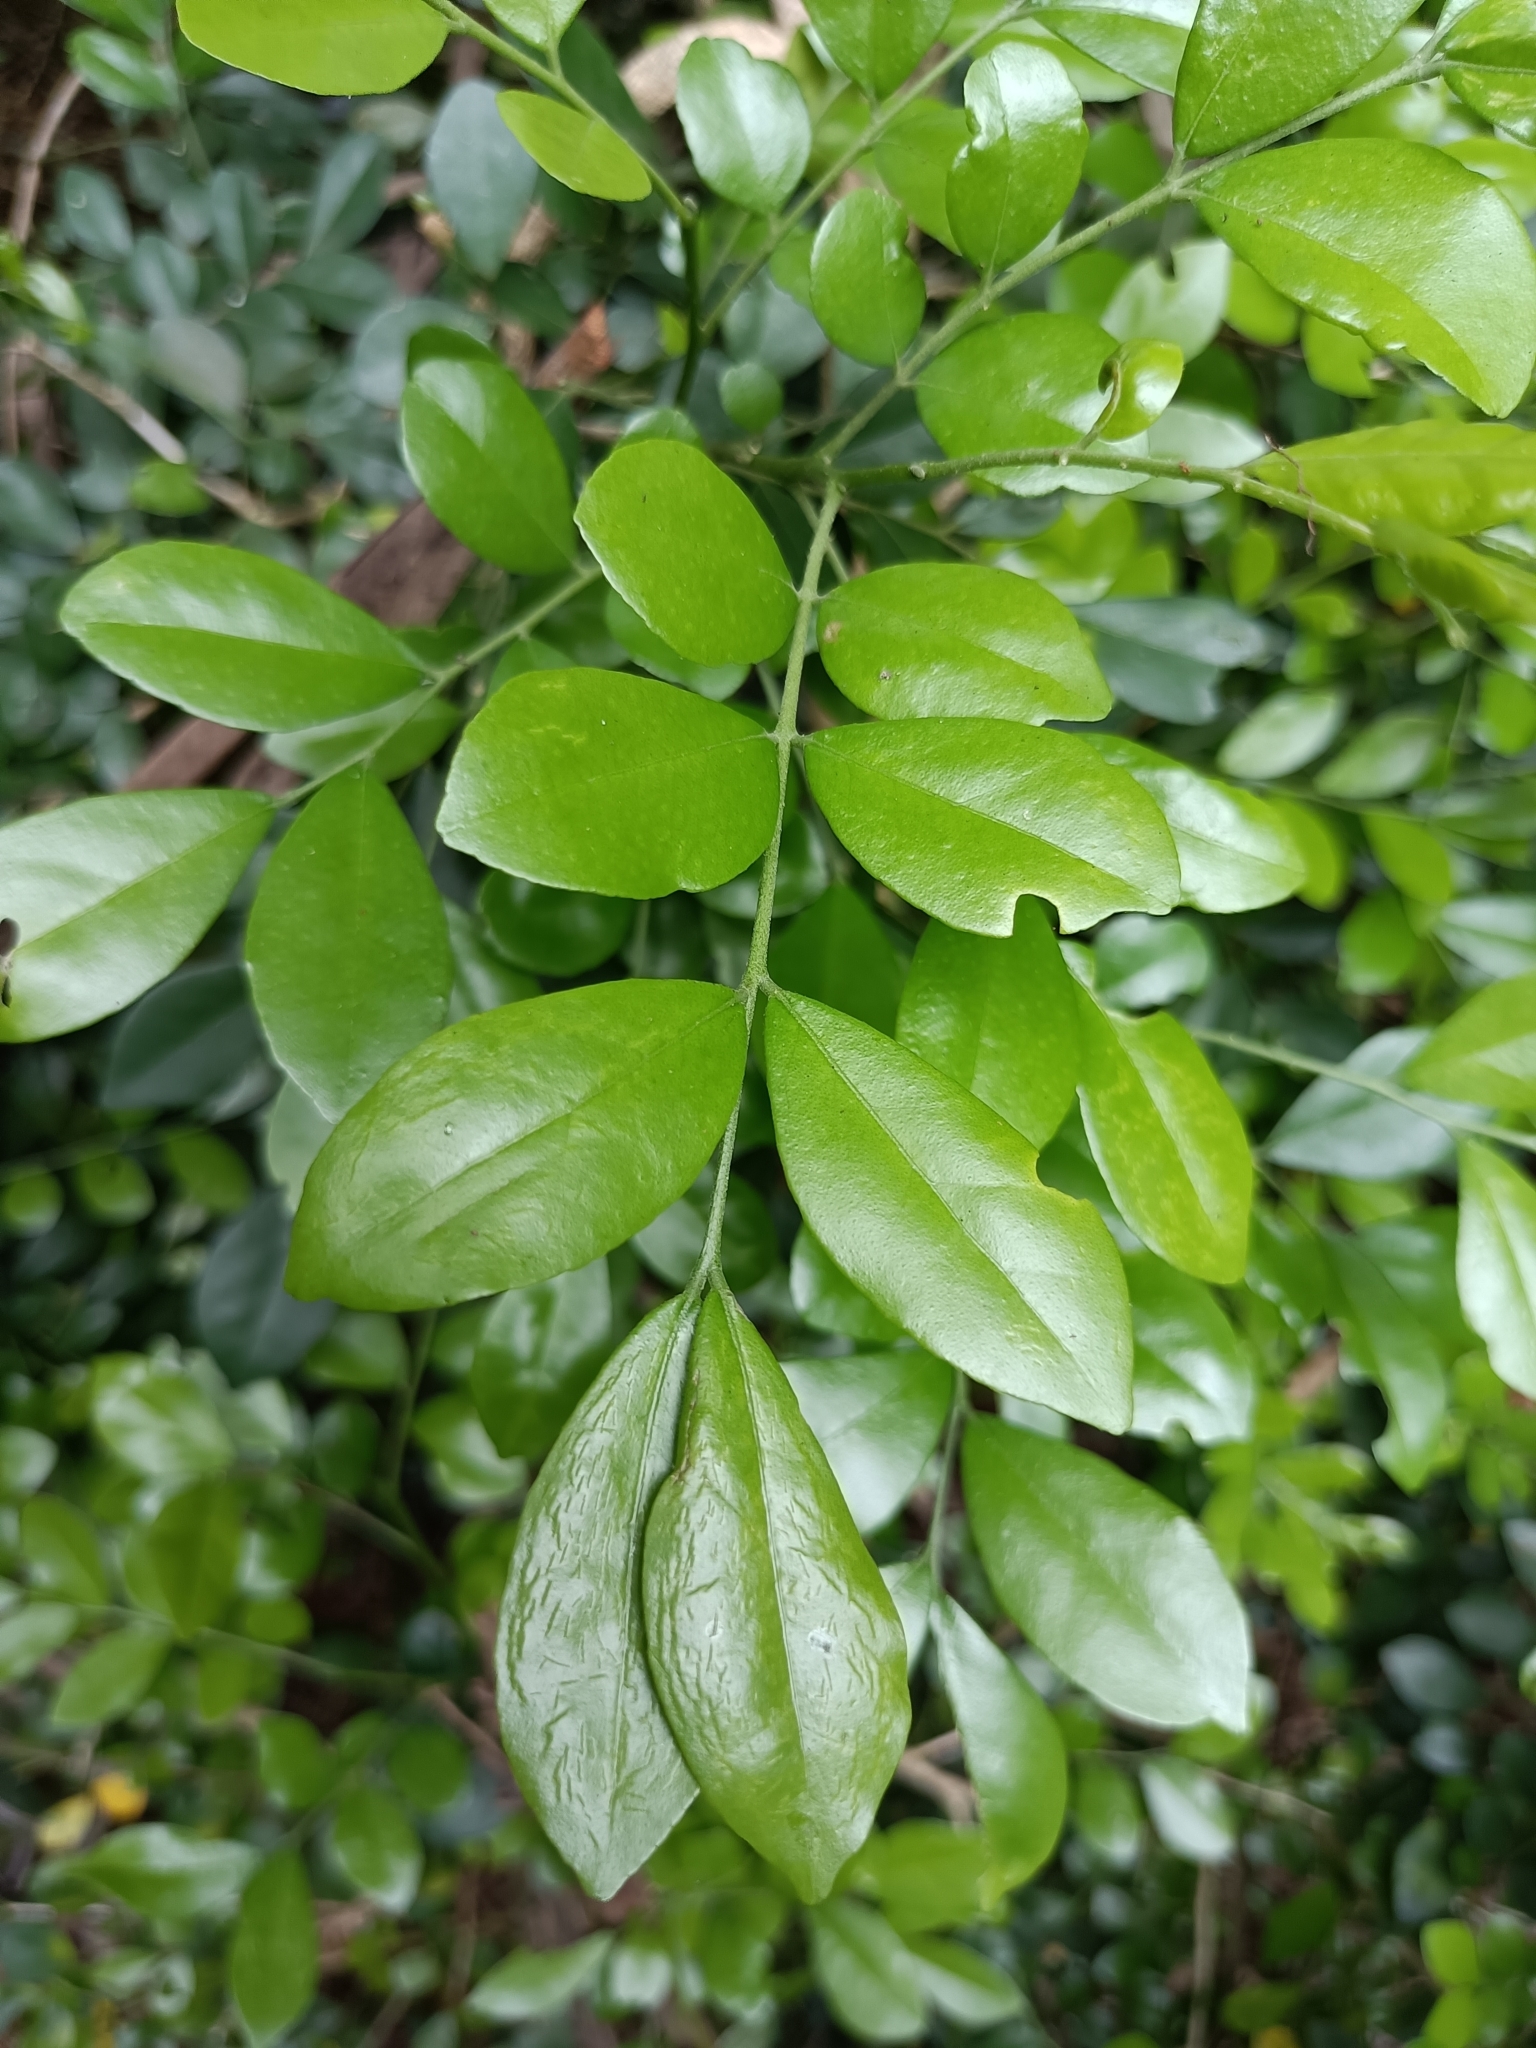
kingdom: Plantae
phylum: Tracheophyta
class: Magnoliopsida
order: Sapindales
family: Rutaceae
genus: Murraya
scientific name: Murraya paniculata
